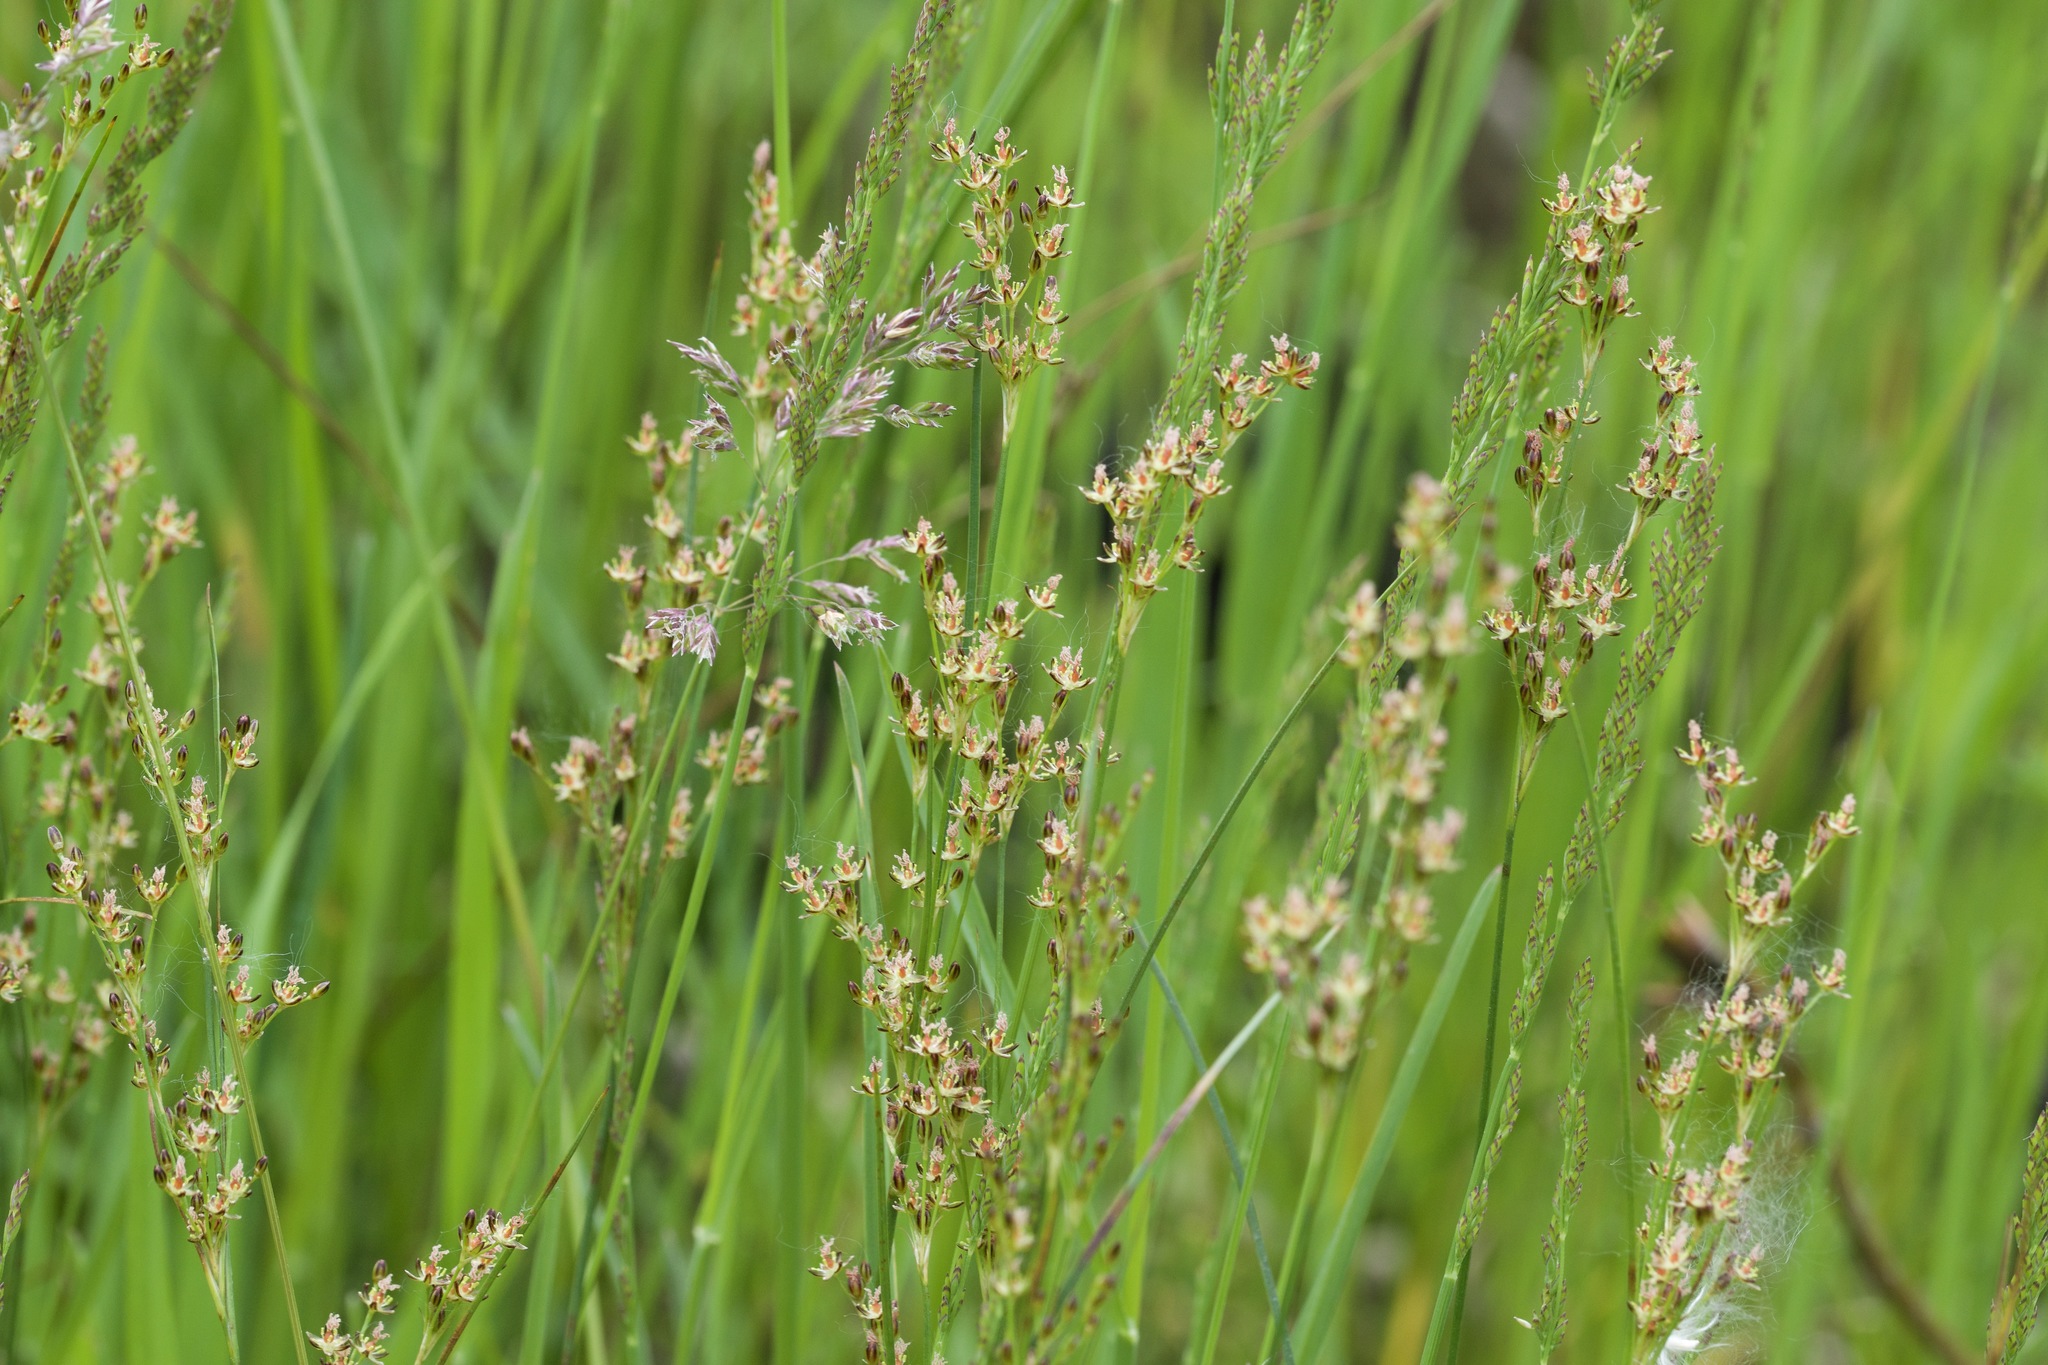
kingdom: Plantae
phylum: Tracheophyta
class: Liliopsida
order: Poales
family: Juncaceae
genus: Juncus
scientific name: Juncus balticus
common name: Baltic rush
